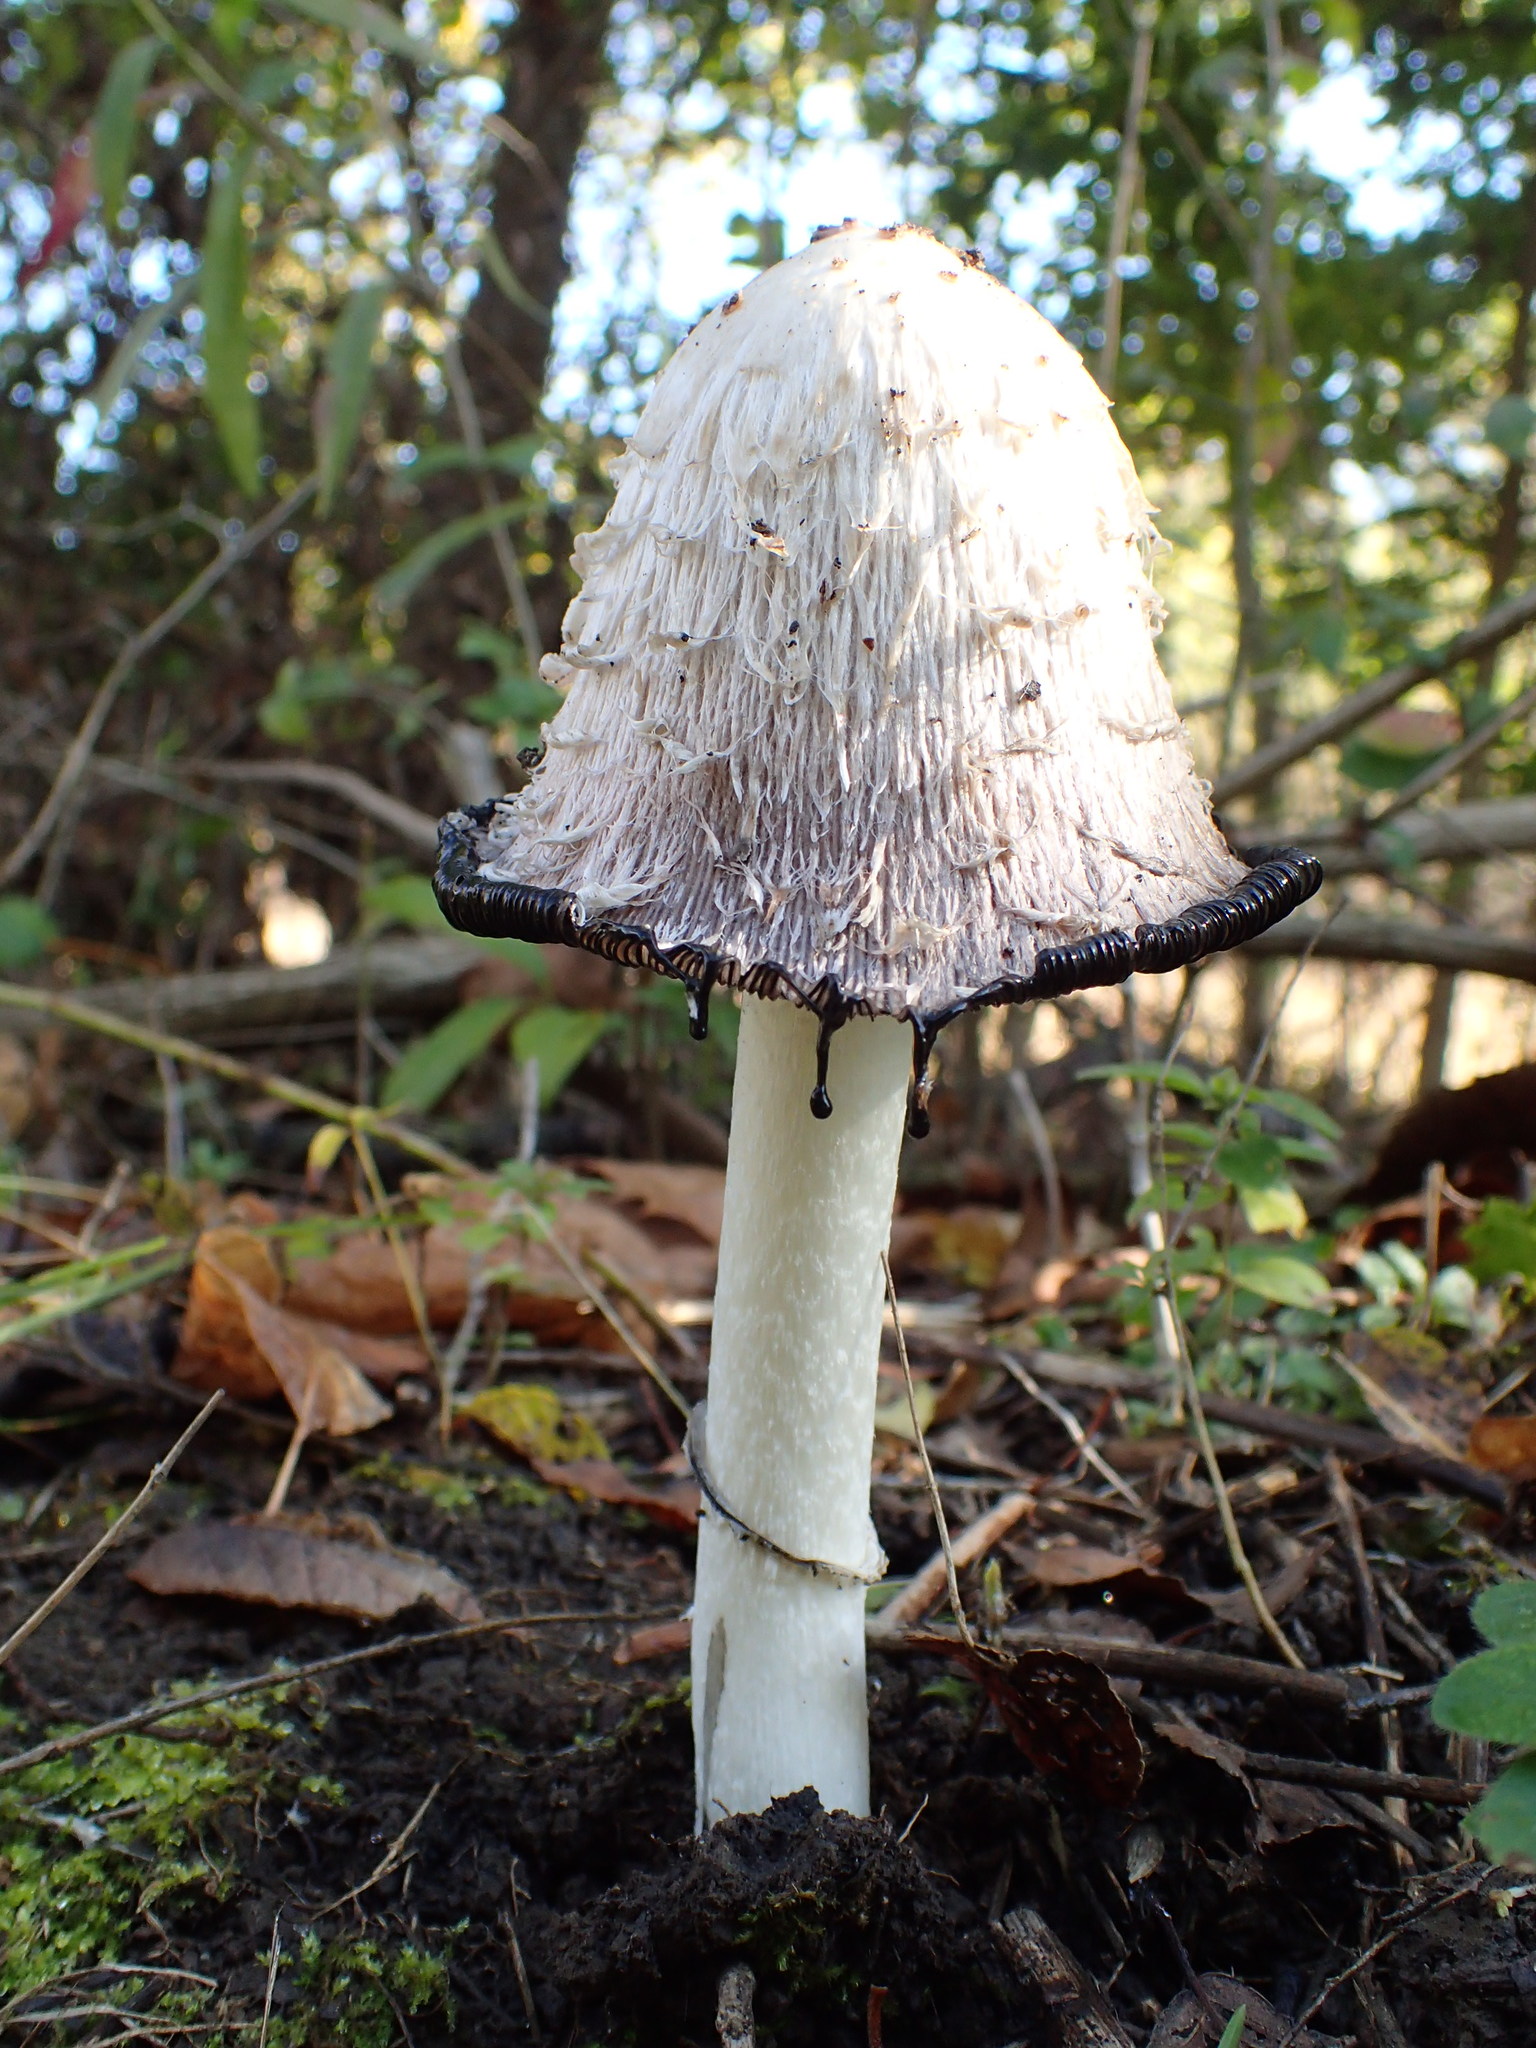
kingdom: Fungi
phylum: Basidiomycota
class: Agaricomycetes
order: Agaricales
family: Agaricaceae
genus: Coprinus
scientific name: Coprinus comatus
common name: Lawyer's wig
